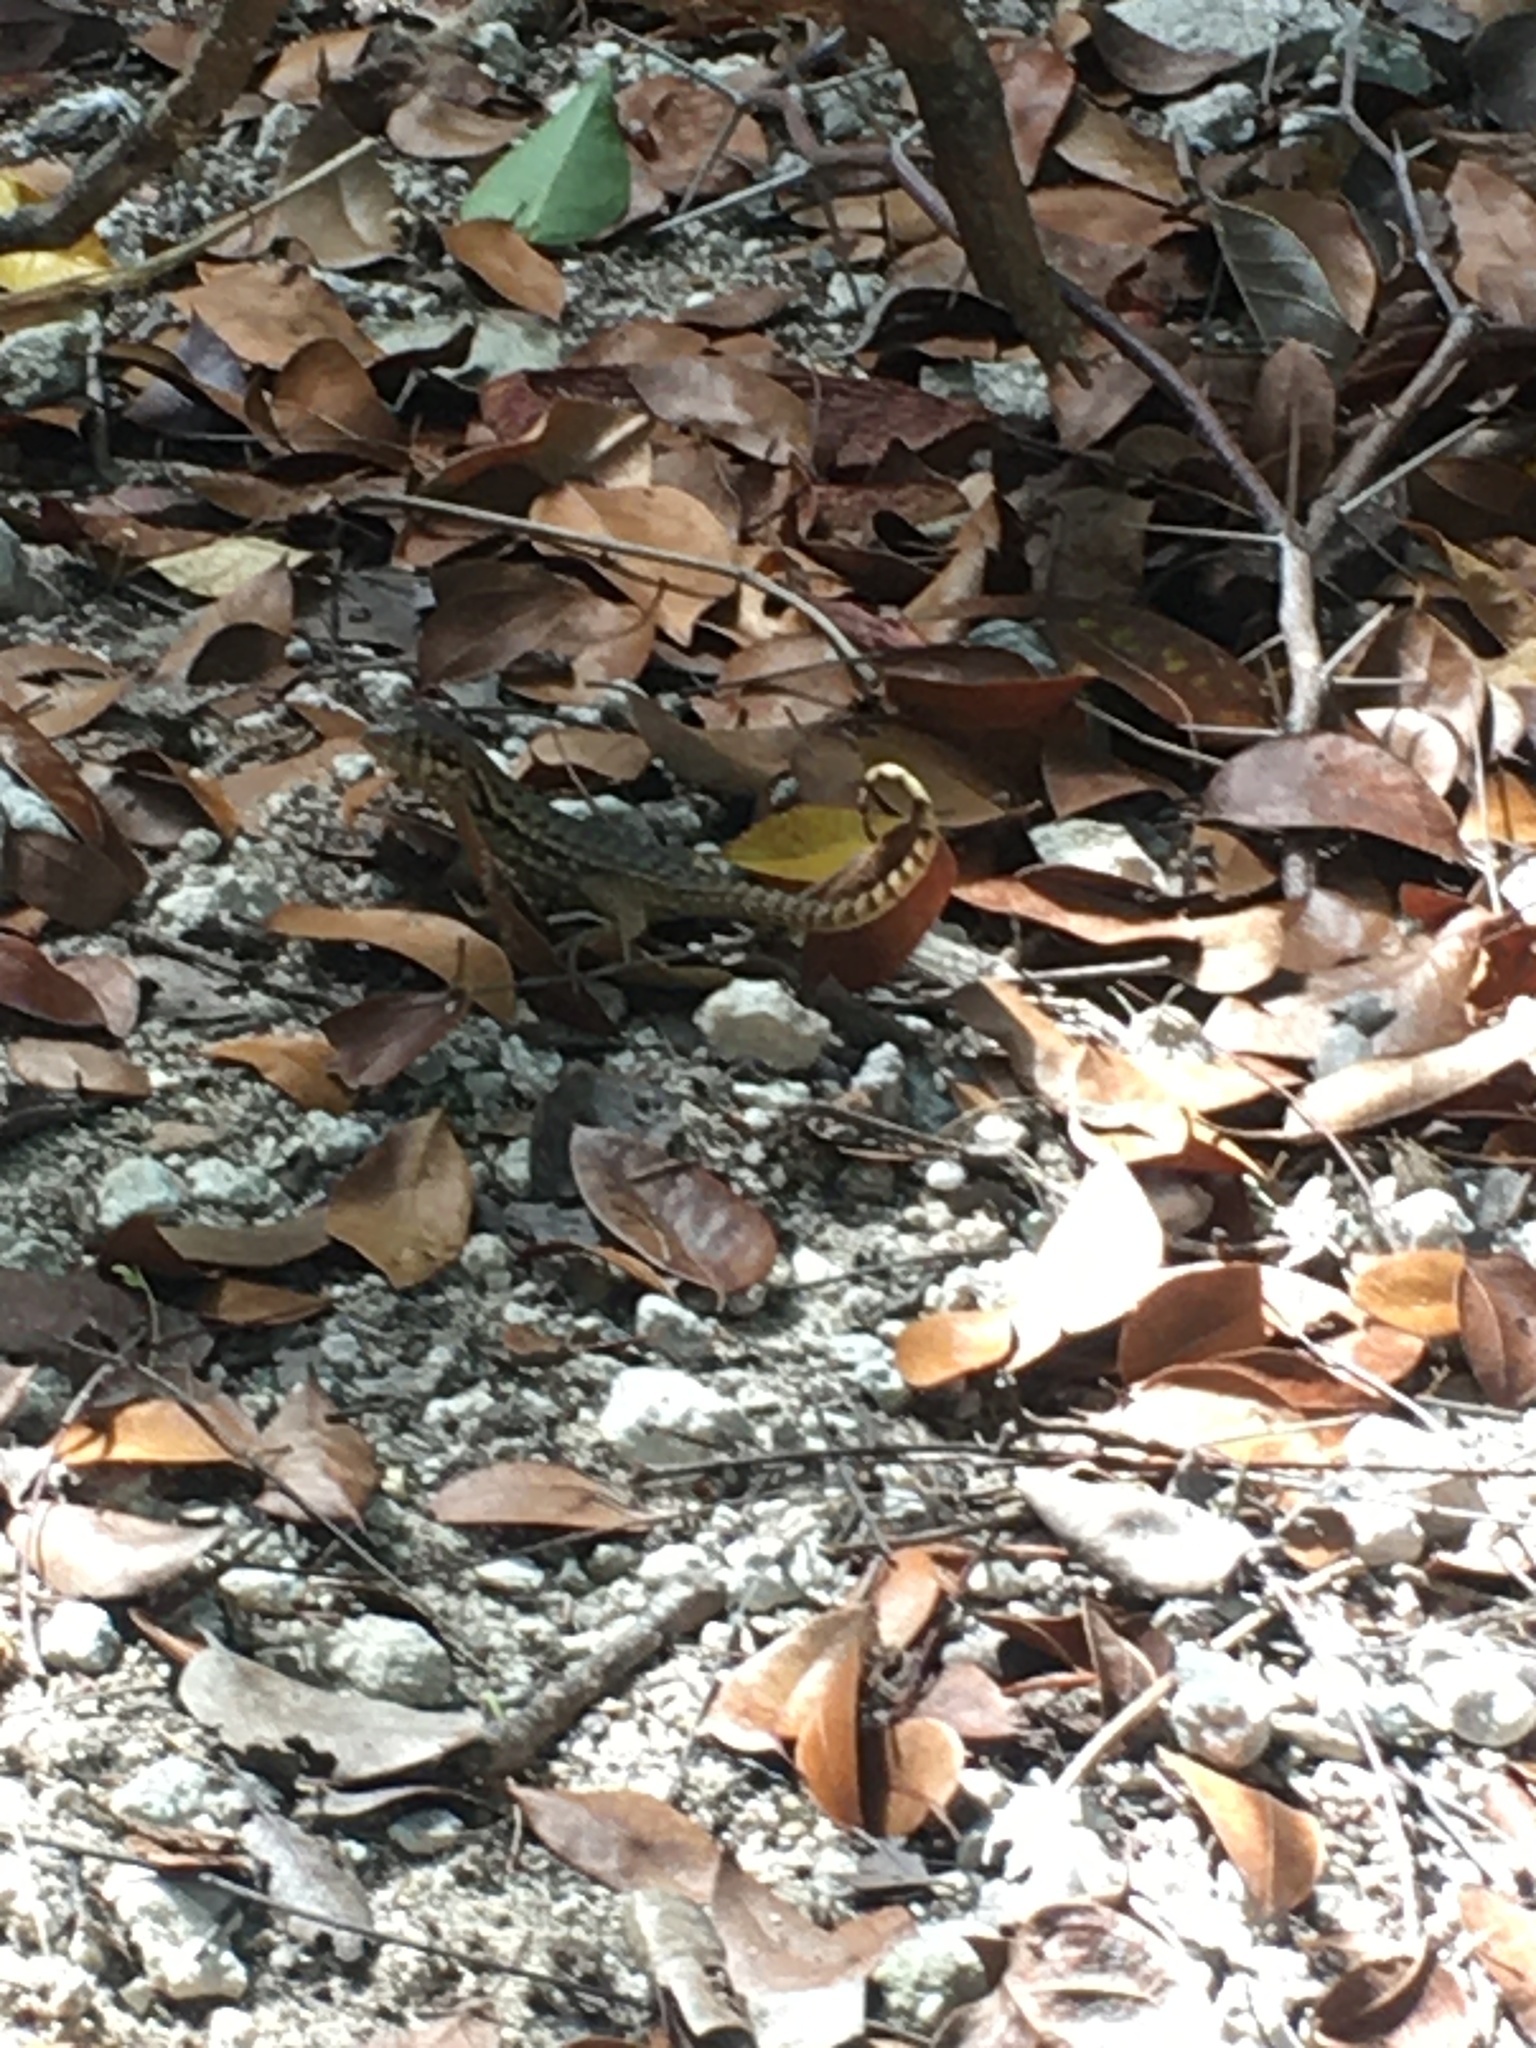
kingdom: Animalia
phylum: Chordata
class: Squamata
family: Leiocephalidae
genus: Leiocephalus
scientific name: Leiocephalus carinatus
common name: Northern curly-tailed lizard
